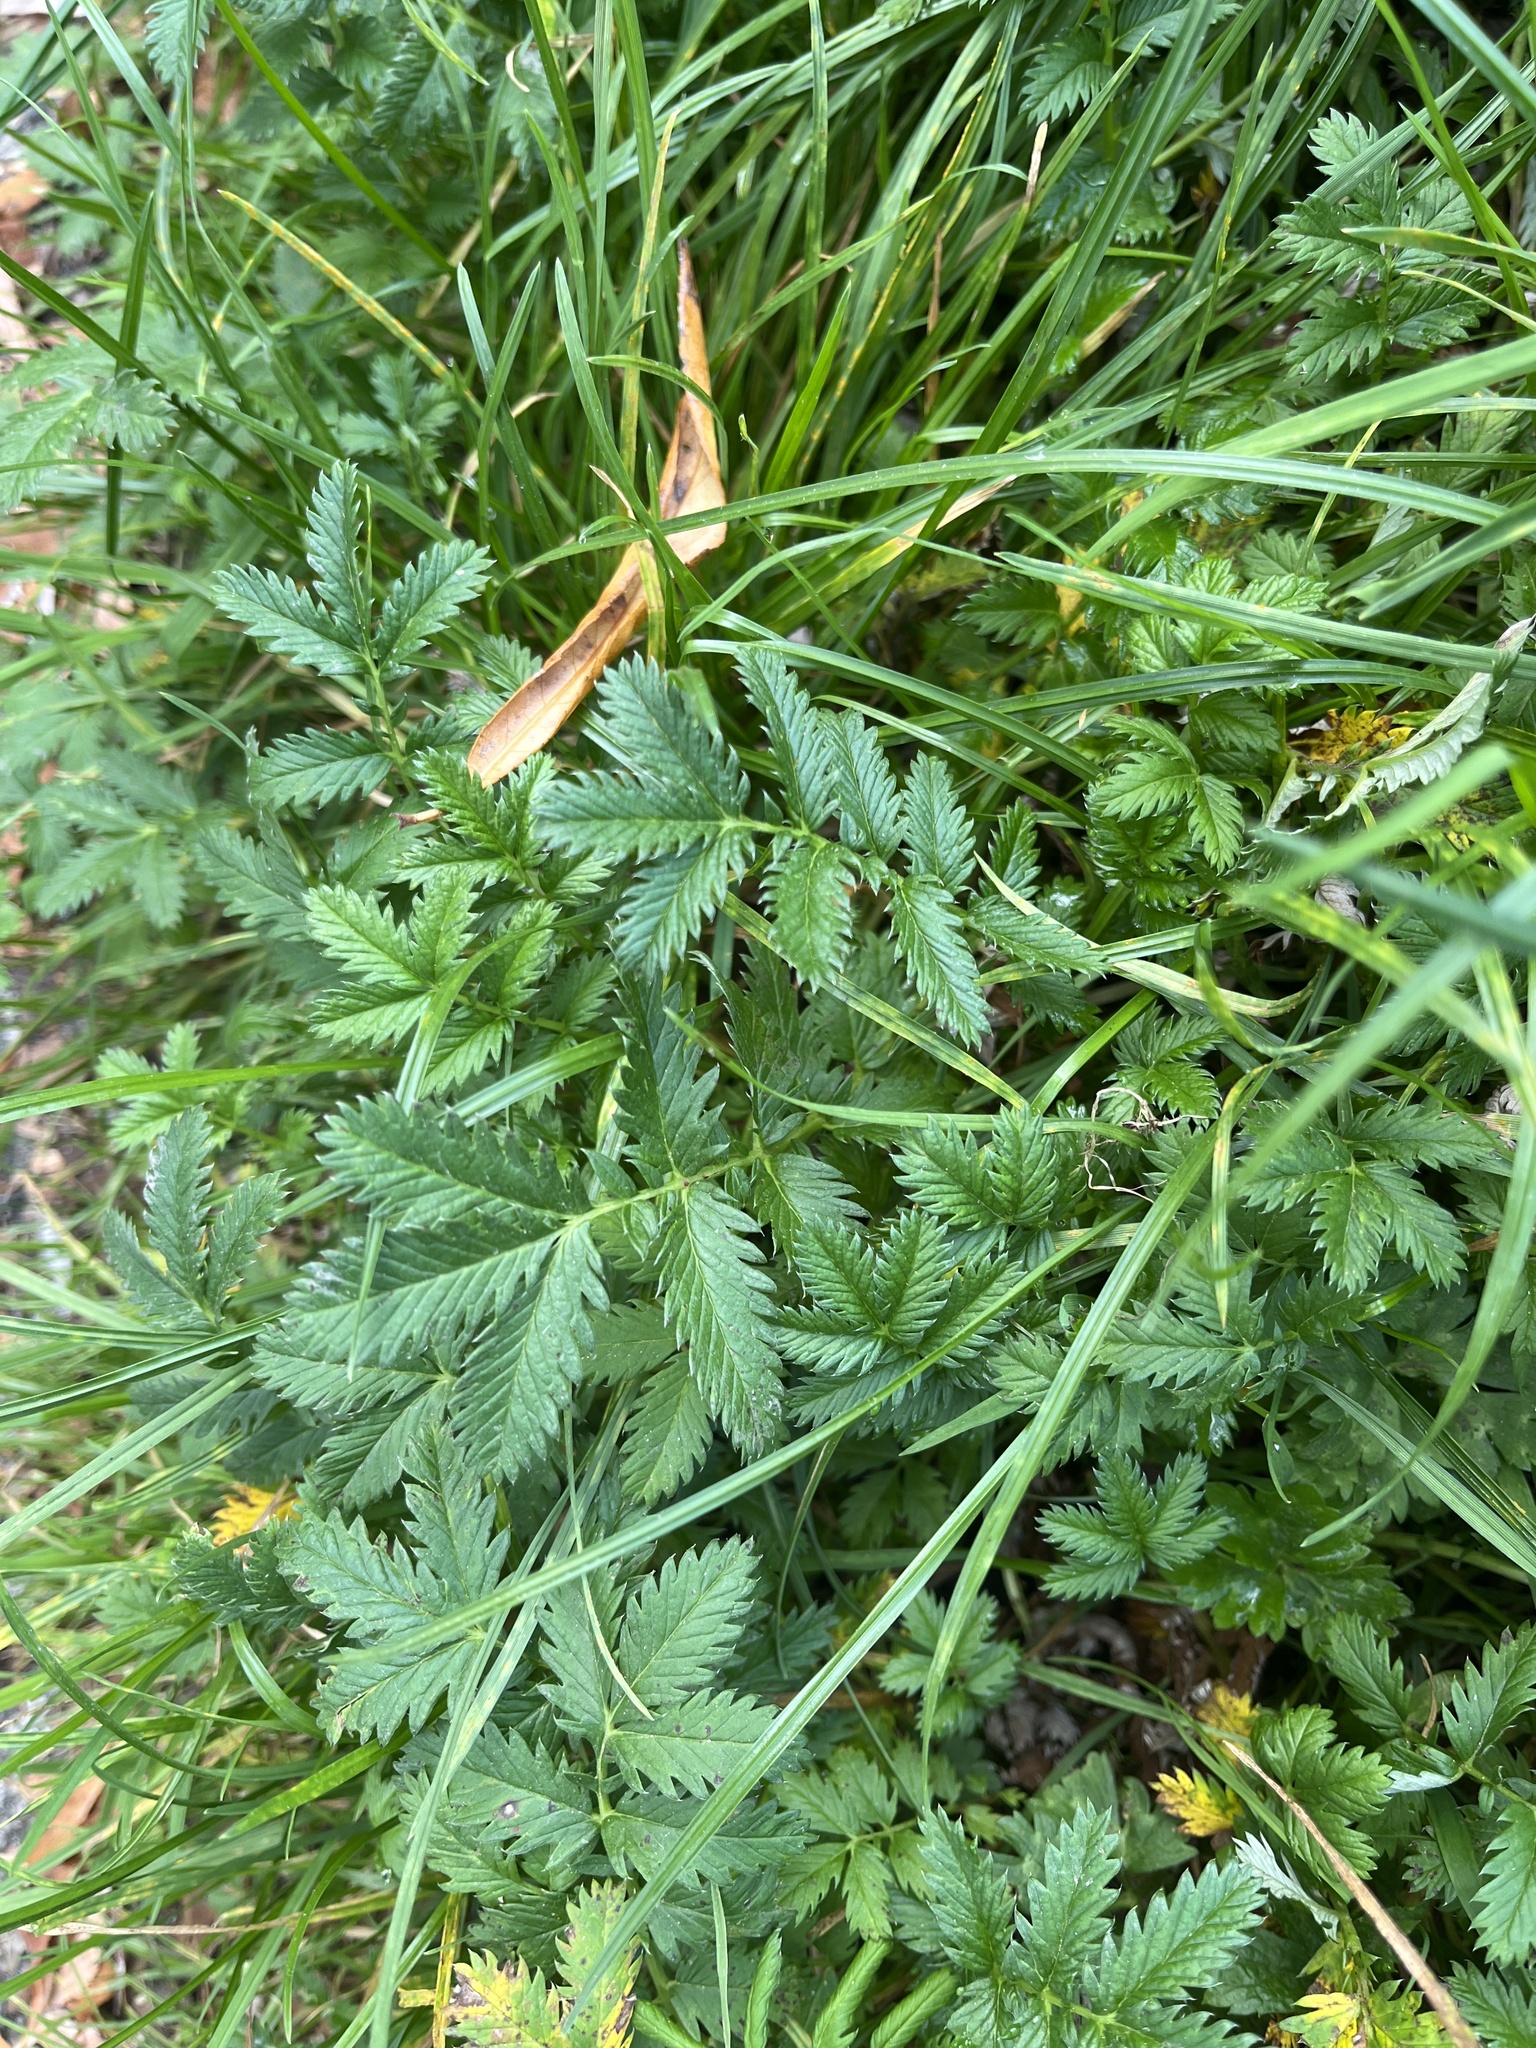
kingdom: Plantae
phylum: Tracheophyta
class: Magnoliopsida
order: Rosales
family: Rosaceae
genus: Argentina
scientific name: Argentina anserina
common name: Common silverweed
